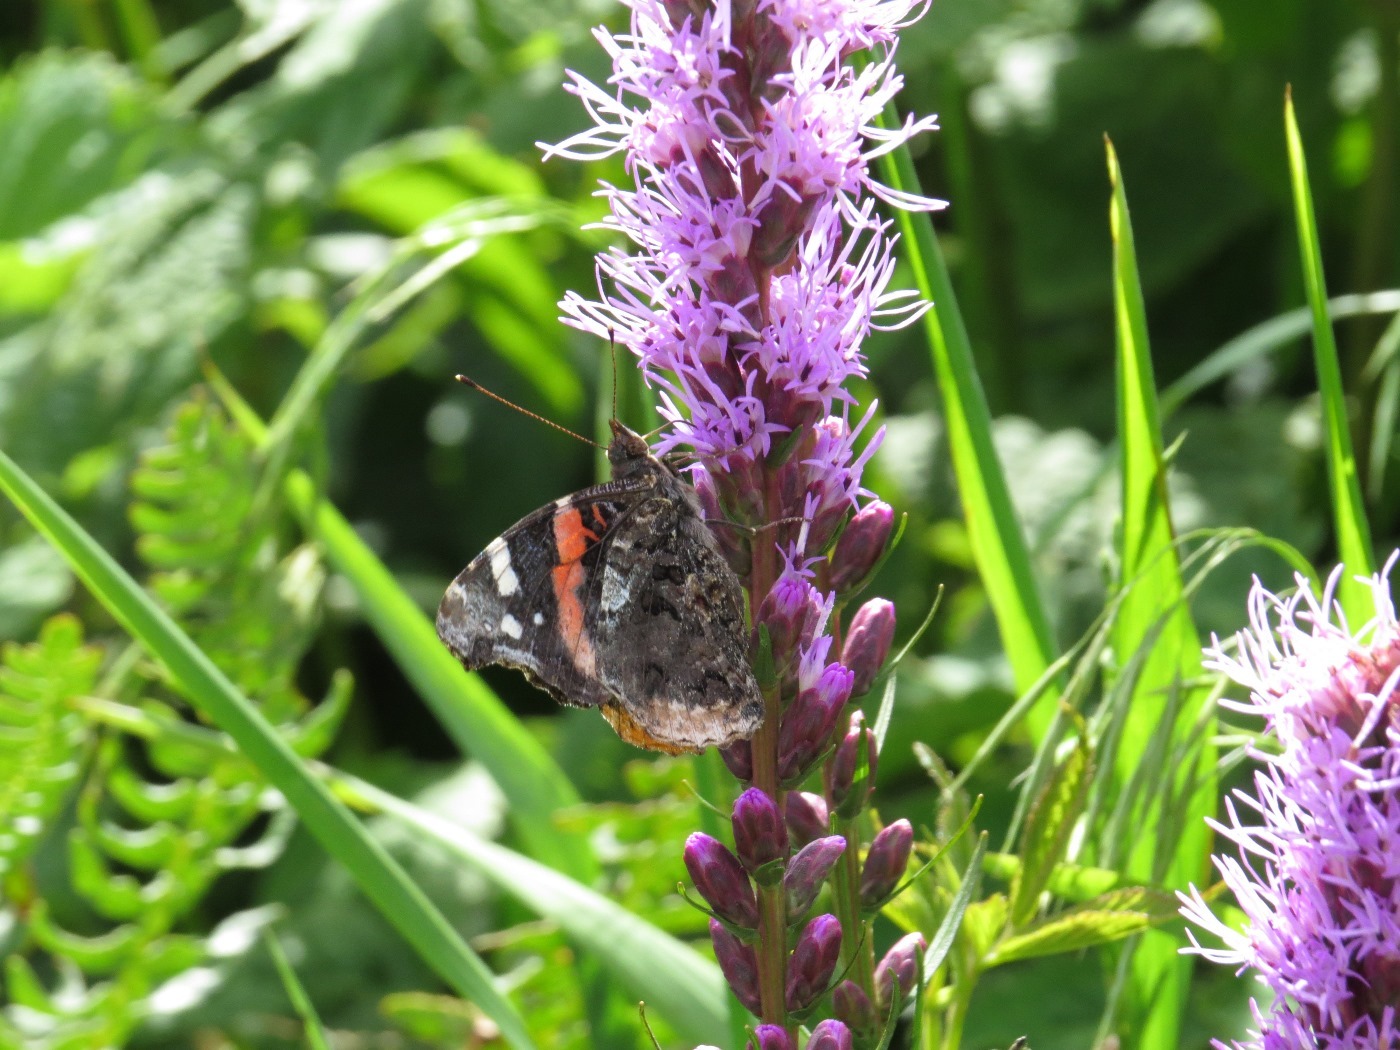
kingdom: Animalia
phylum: Arthropoda
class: Insecta
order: Lepidoptera
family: Nymphalidae
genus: Vanessa
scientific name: Vanessa atalanta
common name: Red admiral
